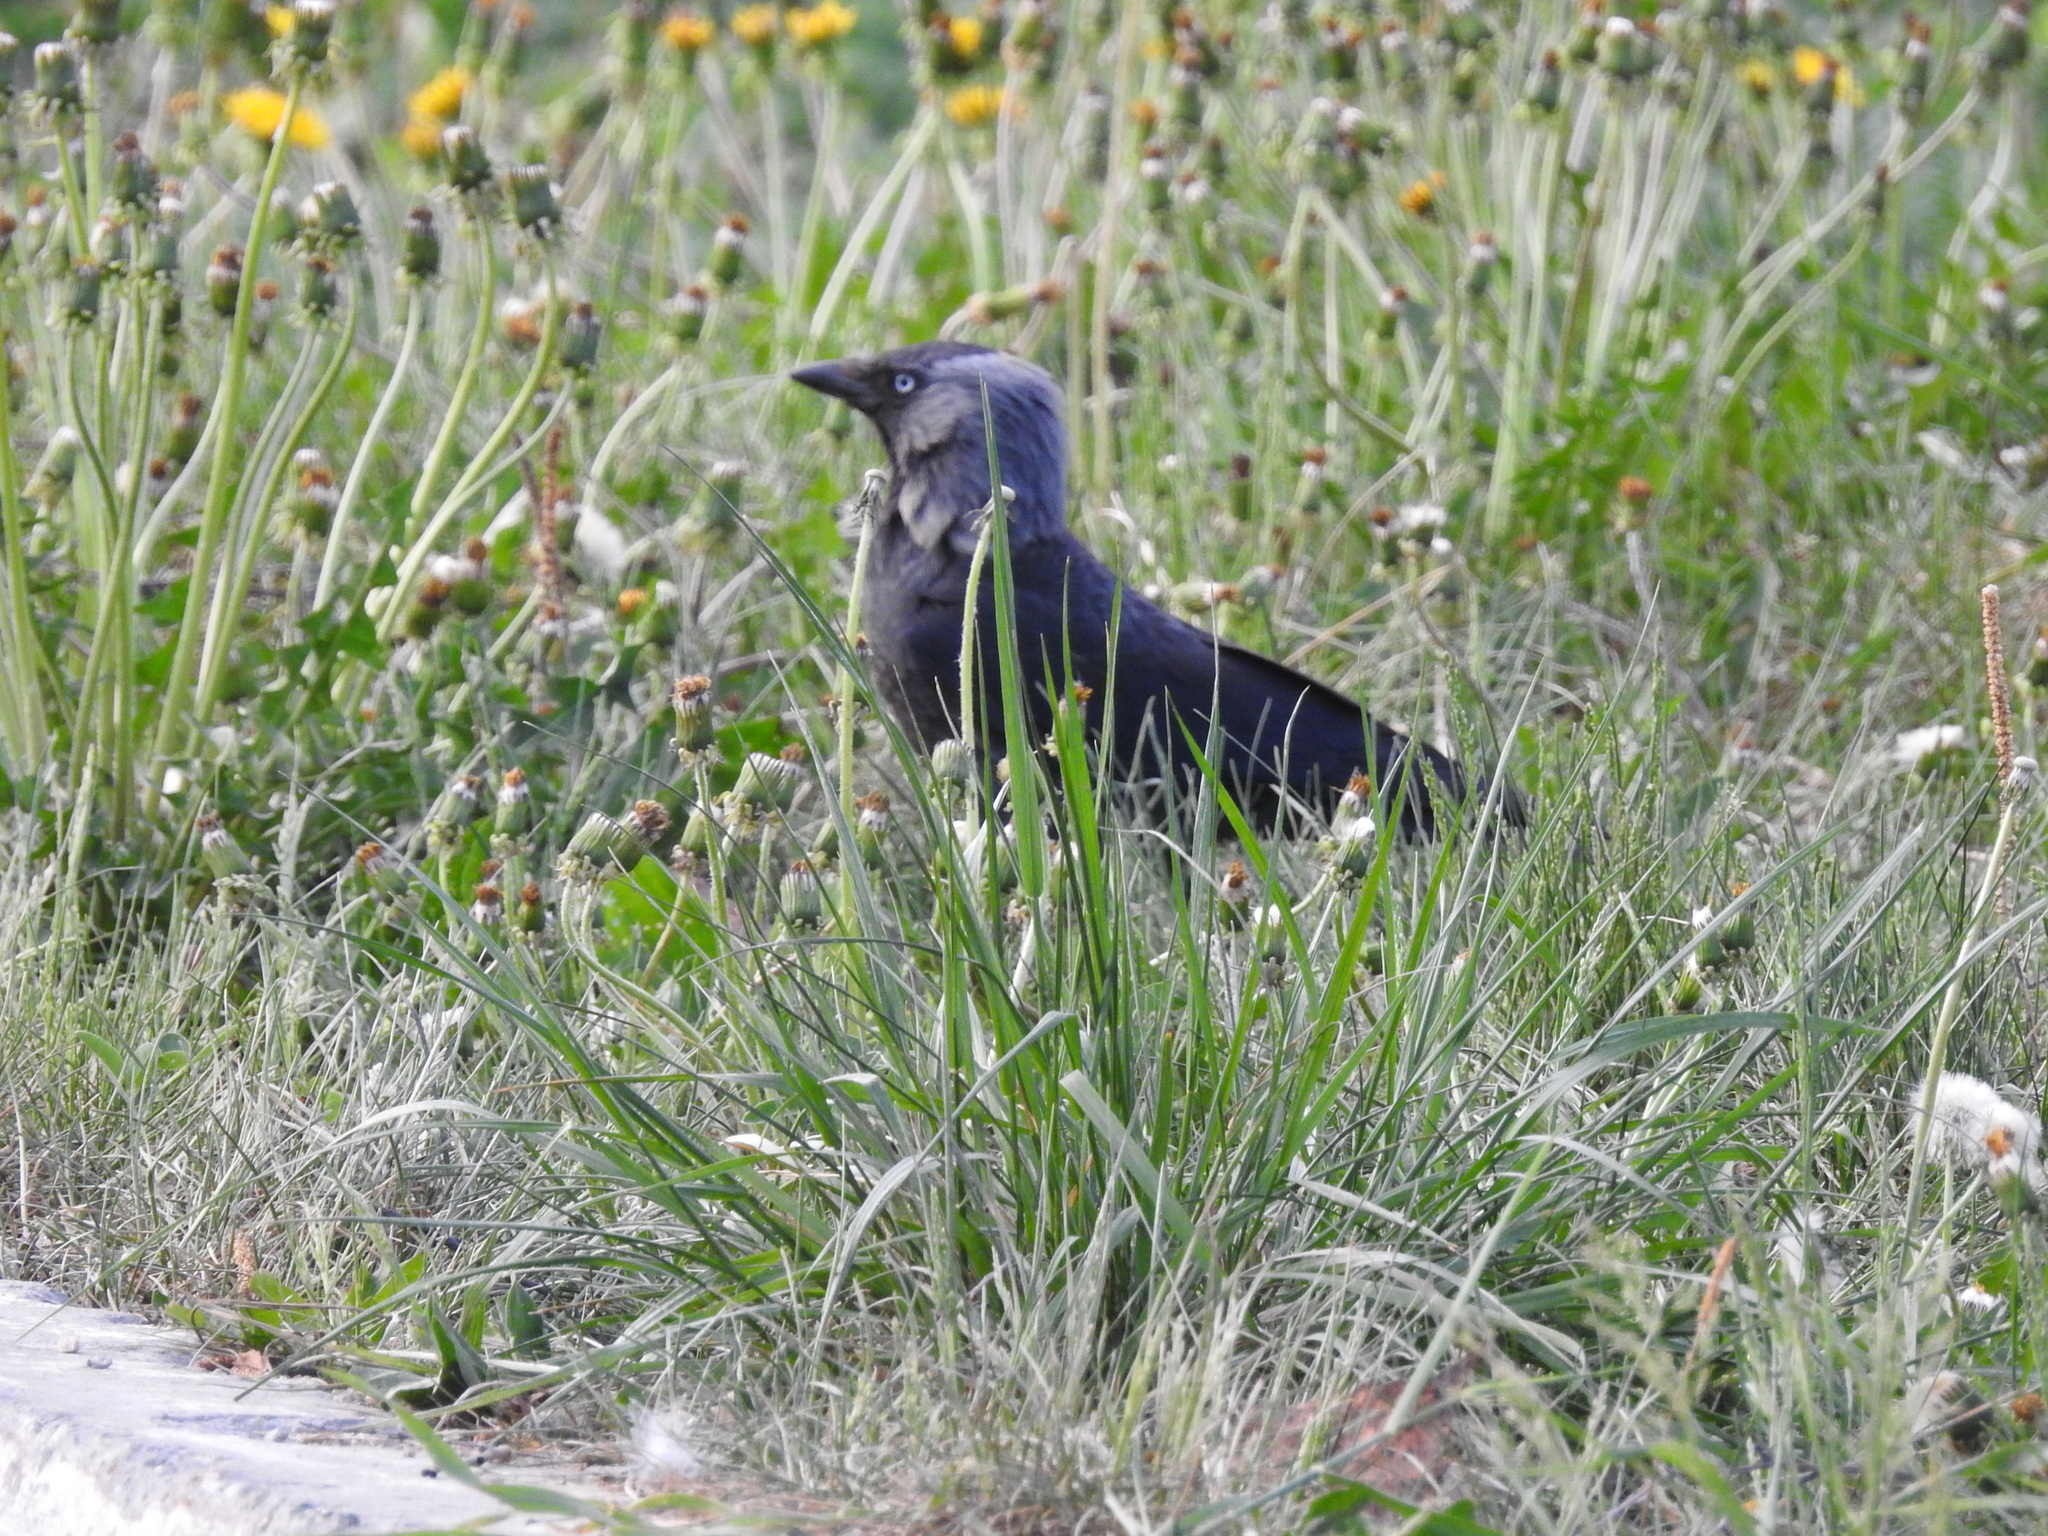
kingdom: Animalia
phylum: Chordata
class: Aves
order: Passeriformes
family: Corvidae
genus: Coloeus
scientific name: Coloeus monedula
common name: Western jackdaw
